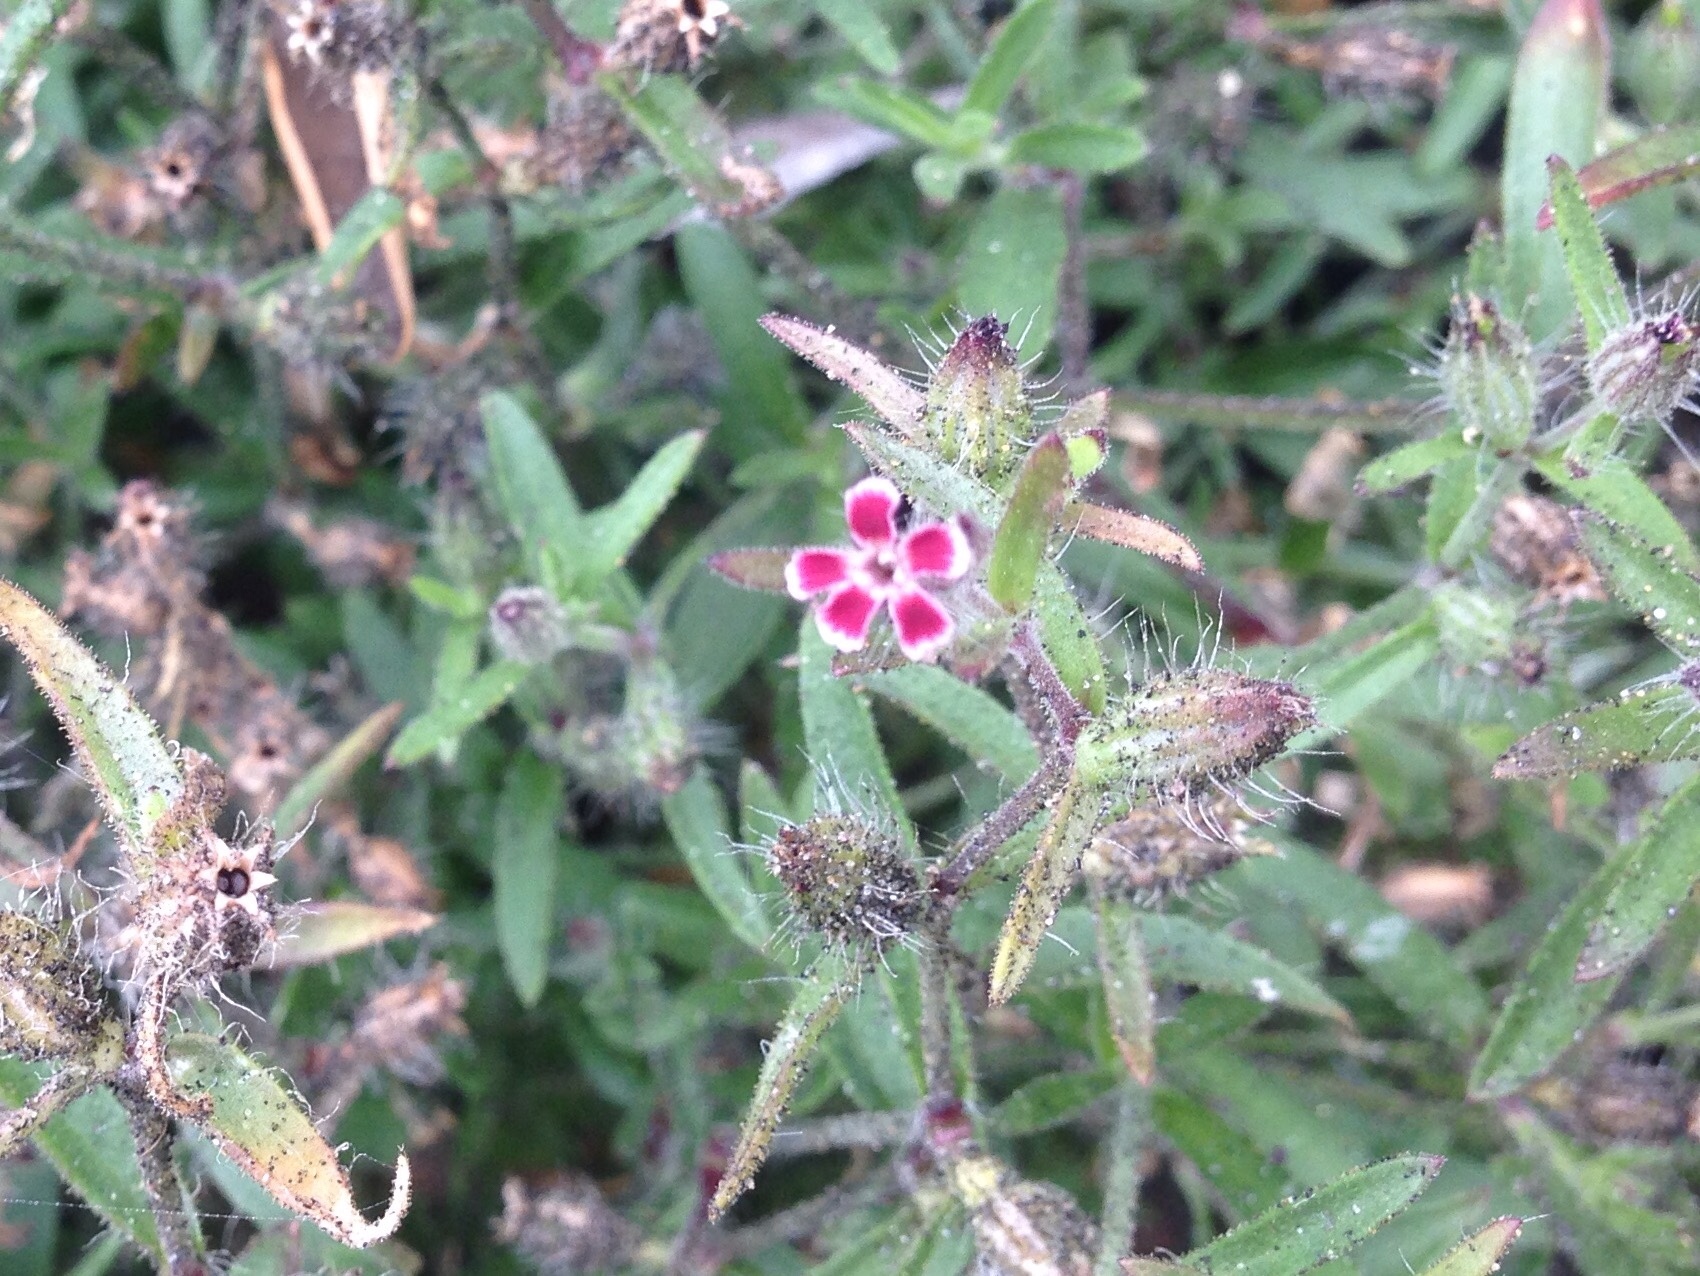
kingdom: Plantae
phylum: Tracheophyta
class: Magnoliopsida
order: Caryophyllales
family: Caryophyllaceae
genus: Silene
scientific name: Silene gallica
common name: Small-flowered catchfly
